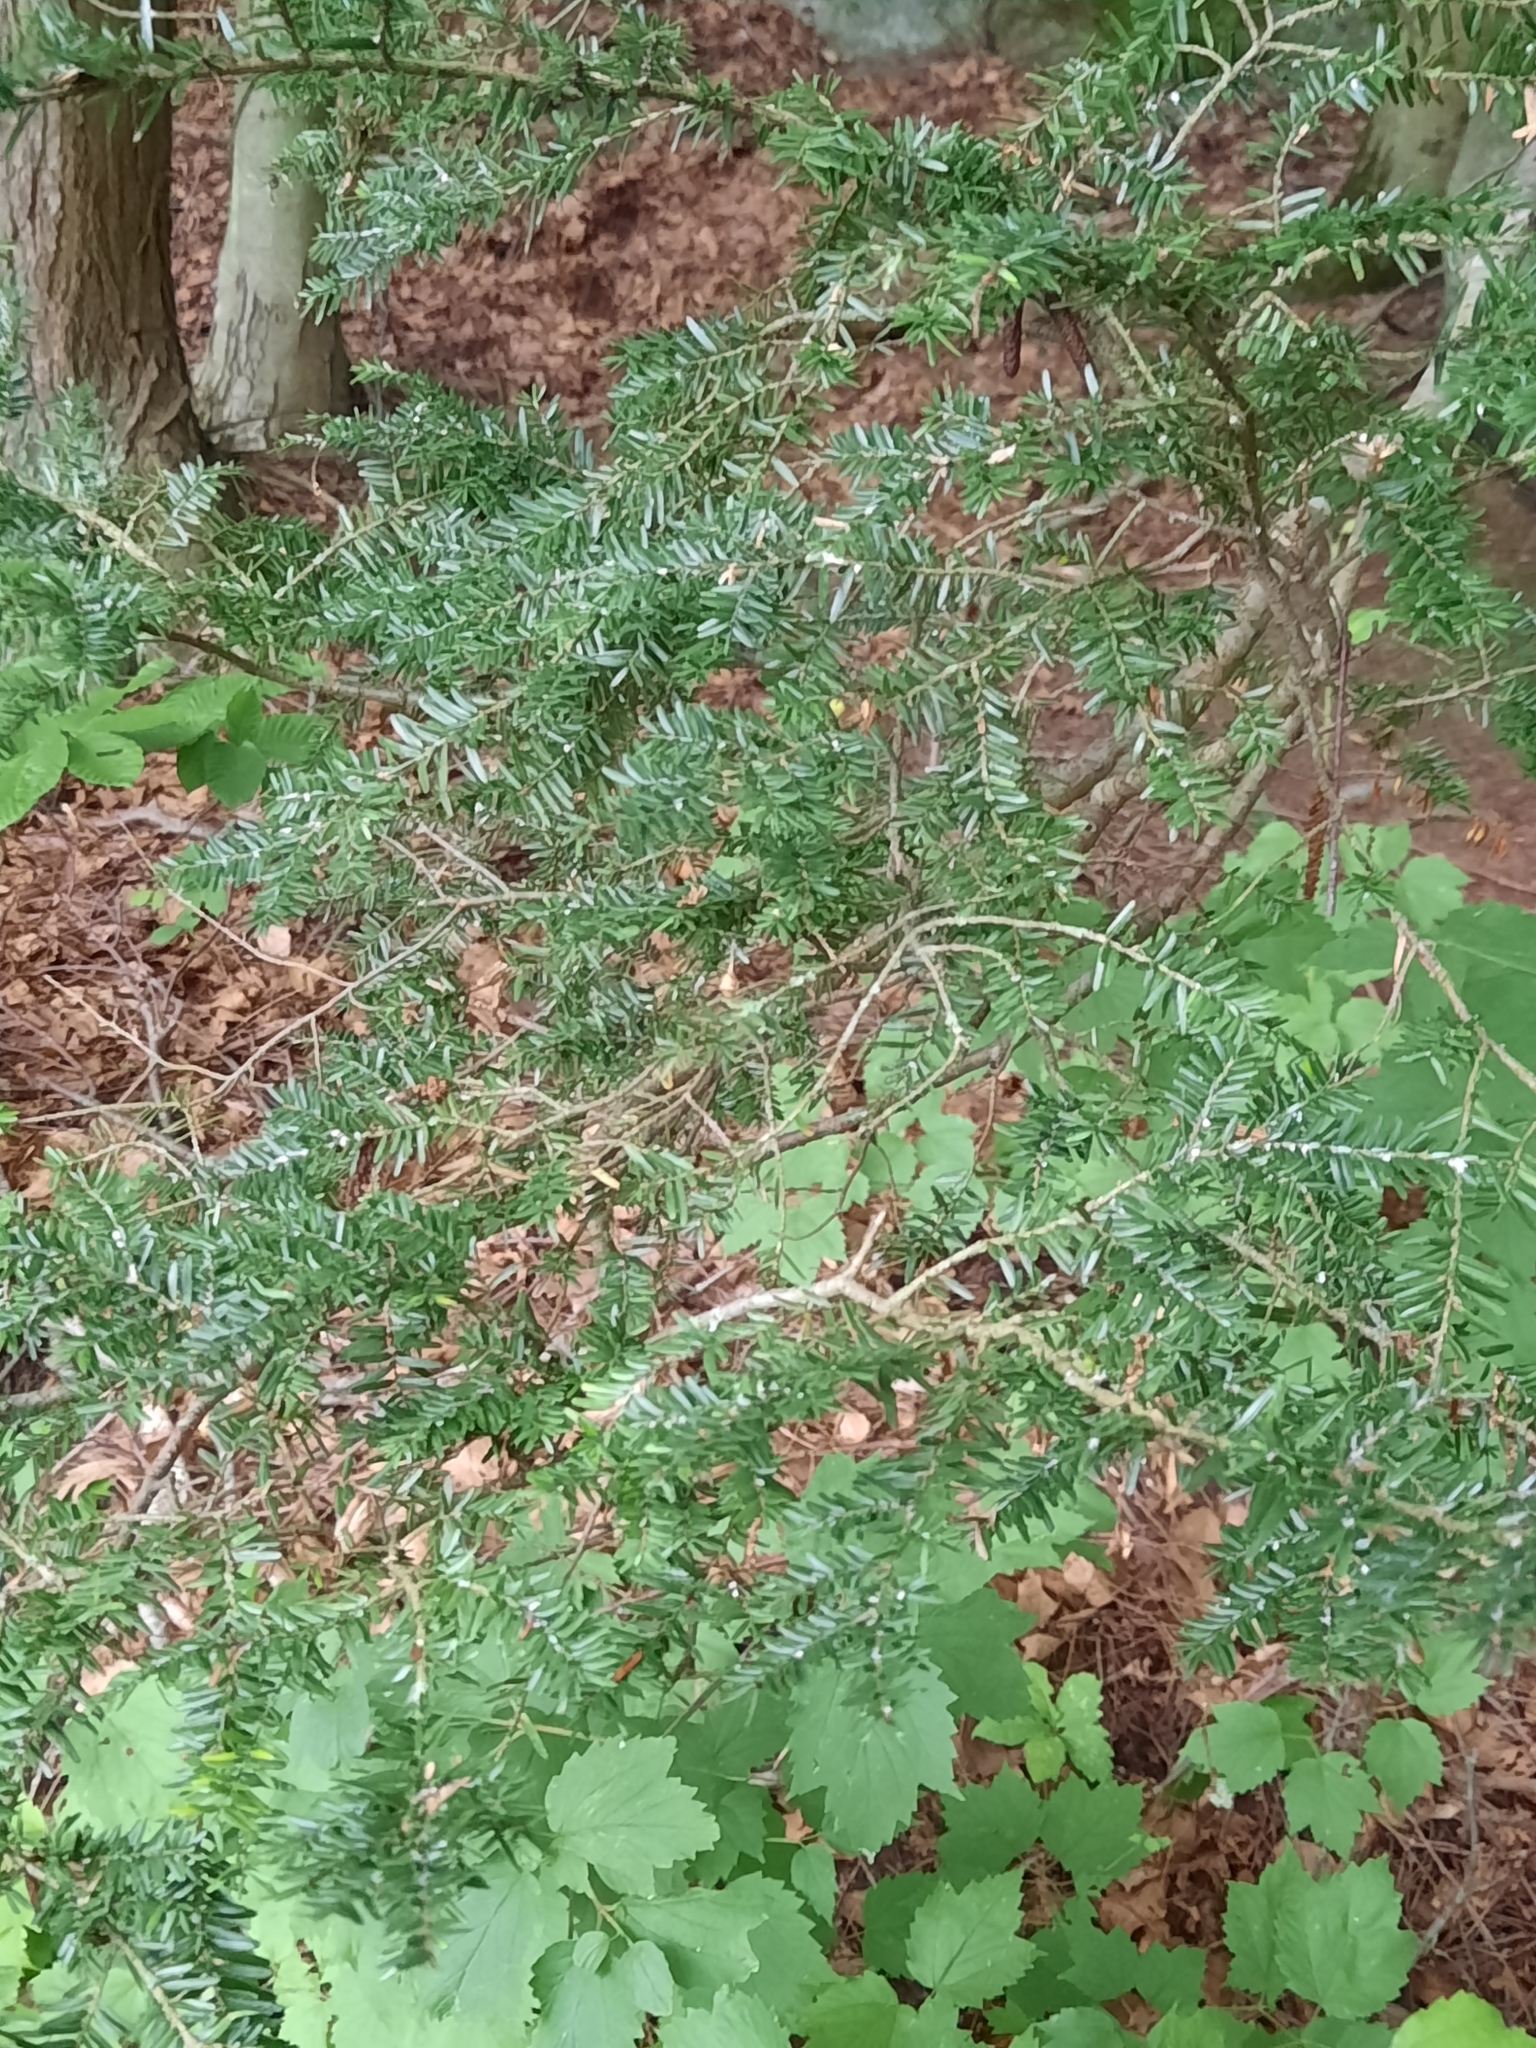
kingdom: Plantae
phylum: Tracheophyta
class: Pinopsida
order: Pinales
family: Pinaceae
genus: Tsuga
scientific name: Tsuga canadensis
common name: Eastern hemlock
